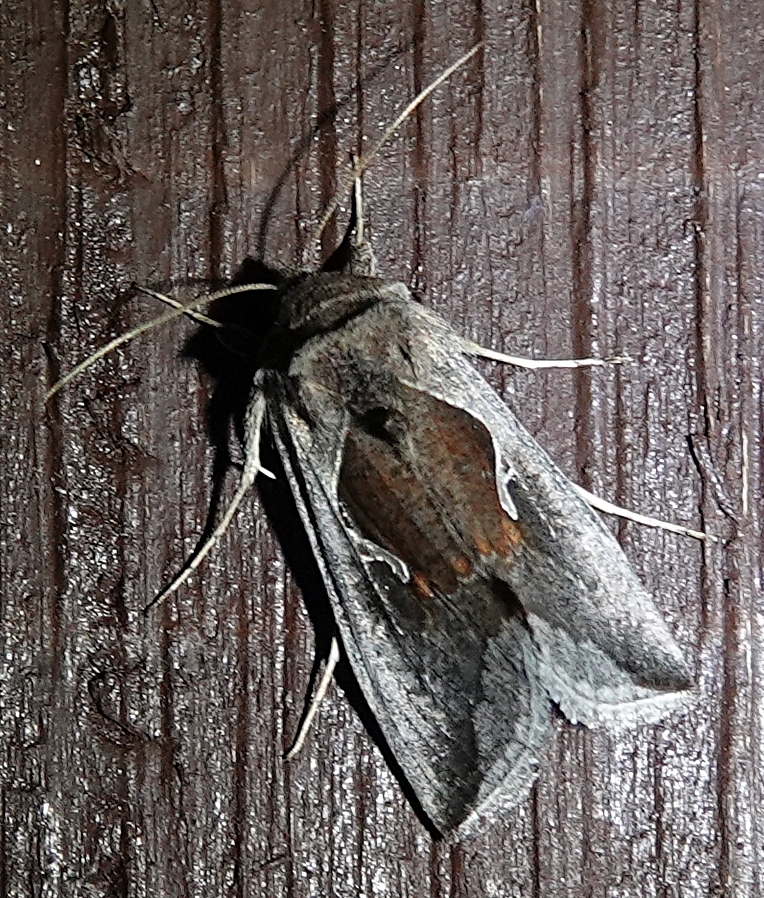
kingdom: Animalia
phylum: Arthropoda
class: Insecta
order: Lepidoptera
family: Noctuidae
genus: Anagrapha
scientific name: Anagrapha falcifera
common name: Celery looper
